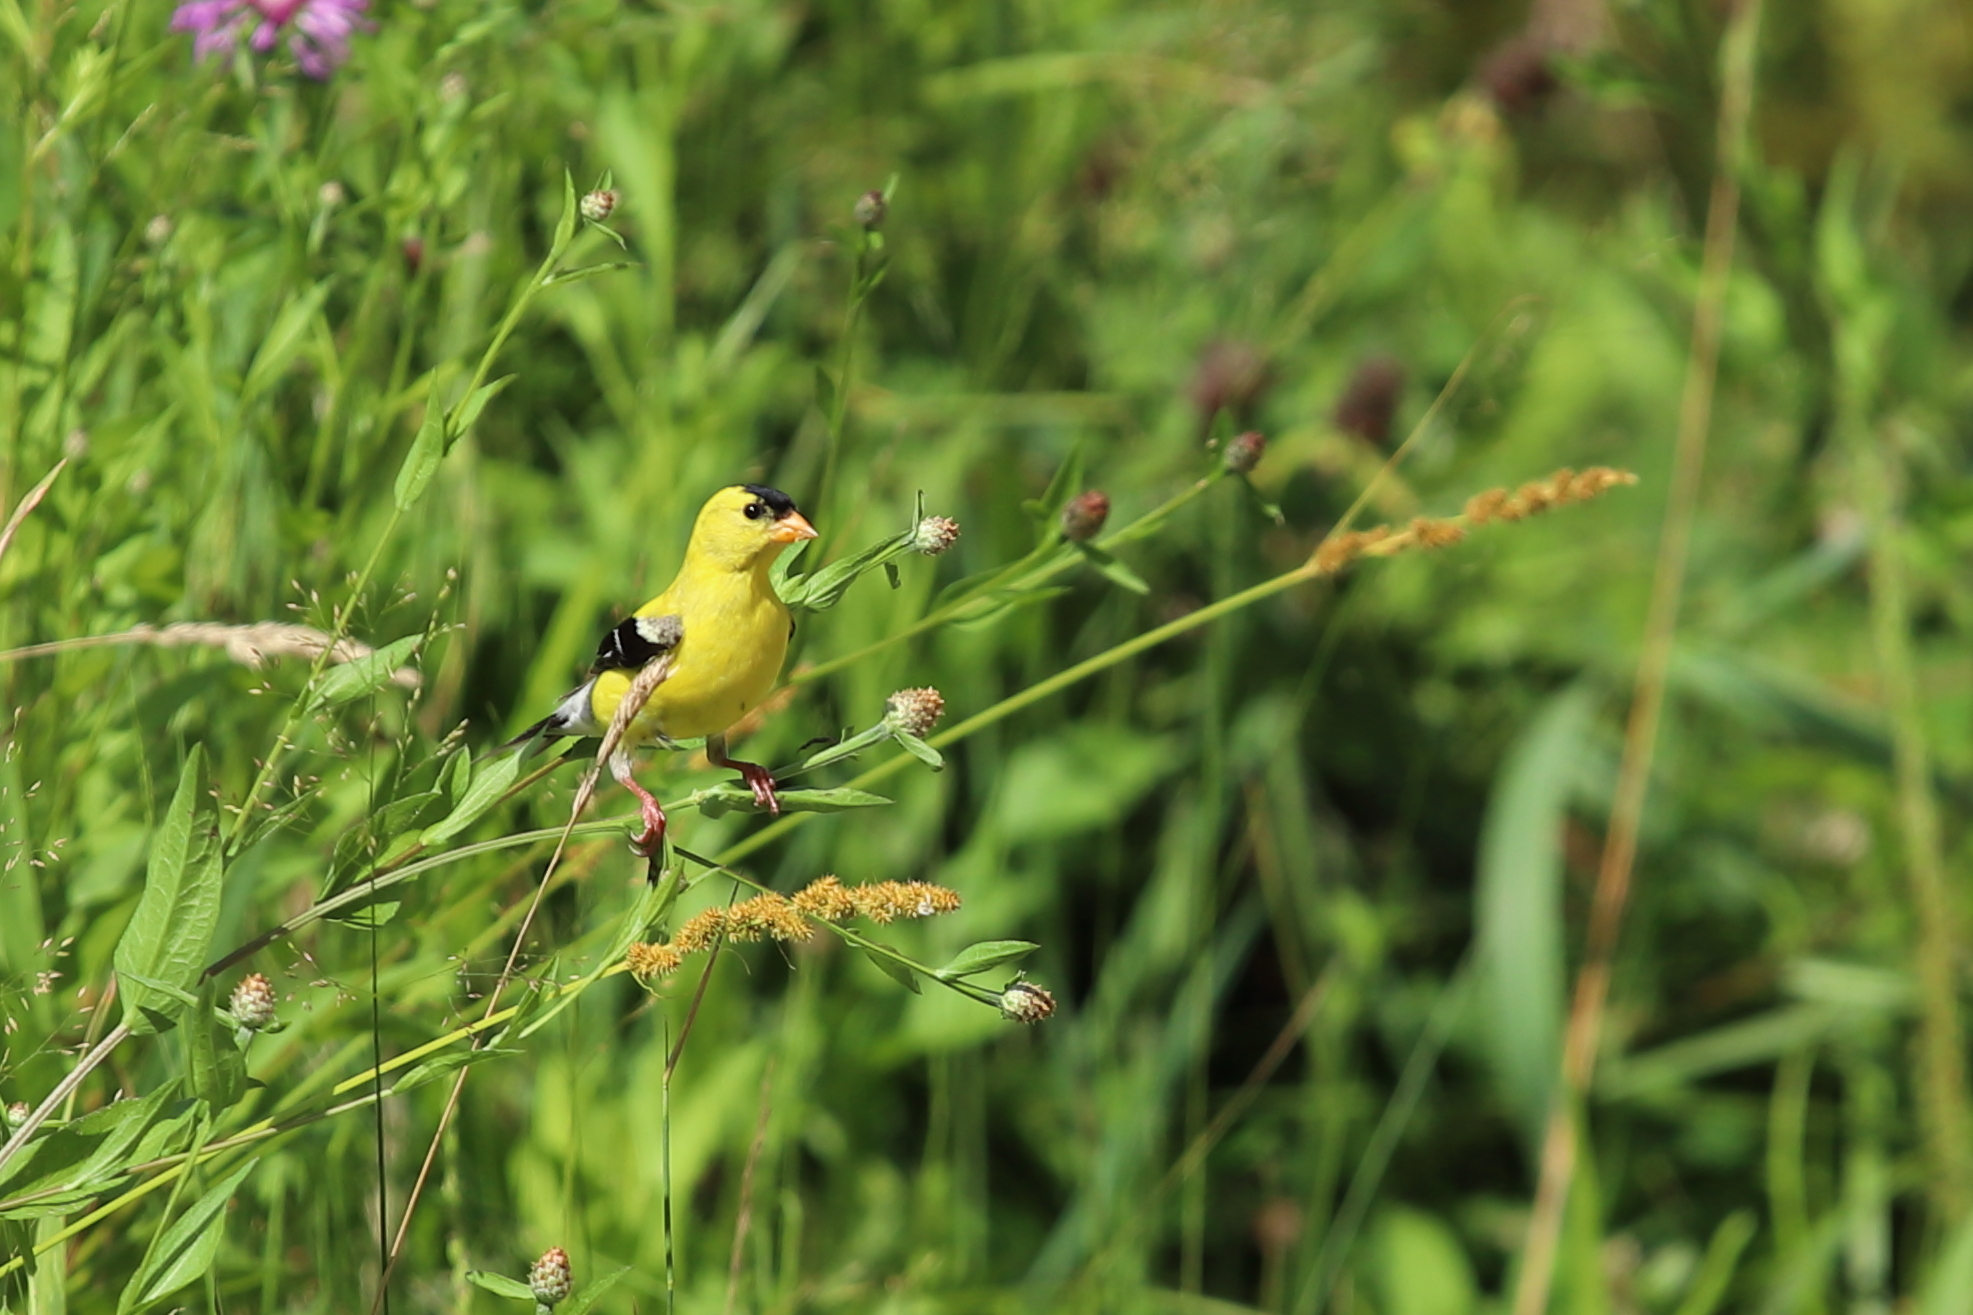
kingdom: Animalia
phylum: Chordata
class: Aves
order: Passeriformes
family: Fringillidae
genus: Spinus
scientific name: Spinus tristis
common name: American goldfinch
